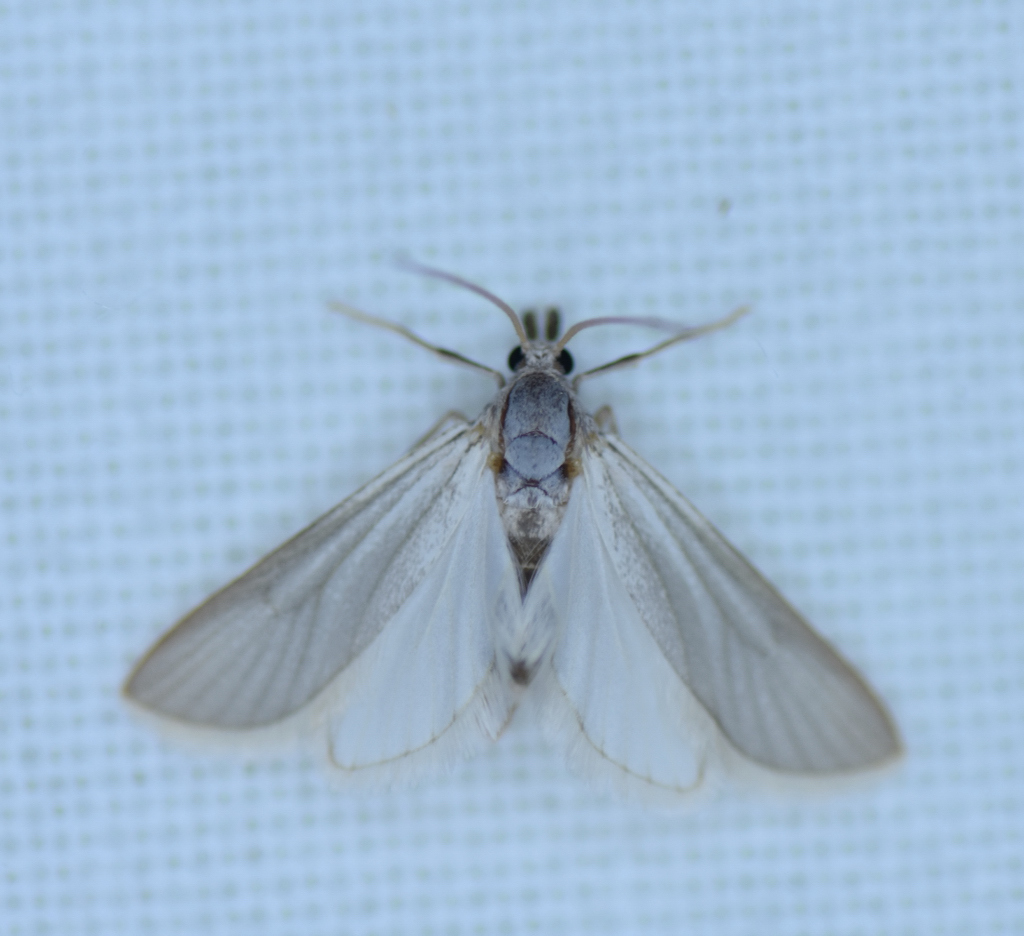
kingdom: Animalia
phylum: Arthropoda
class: Insecta
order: Lepidoptera
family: Crambidae
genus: Acentria
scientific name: Acentria ephemerella
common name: European water moth
